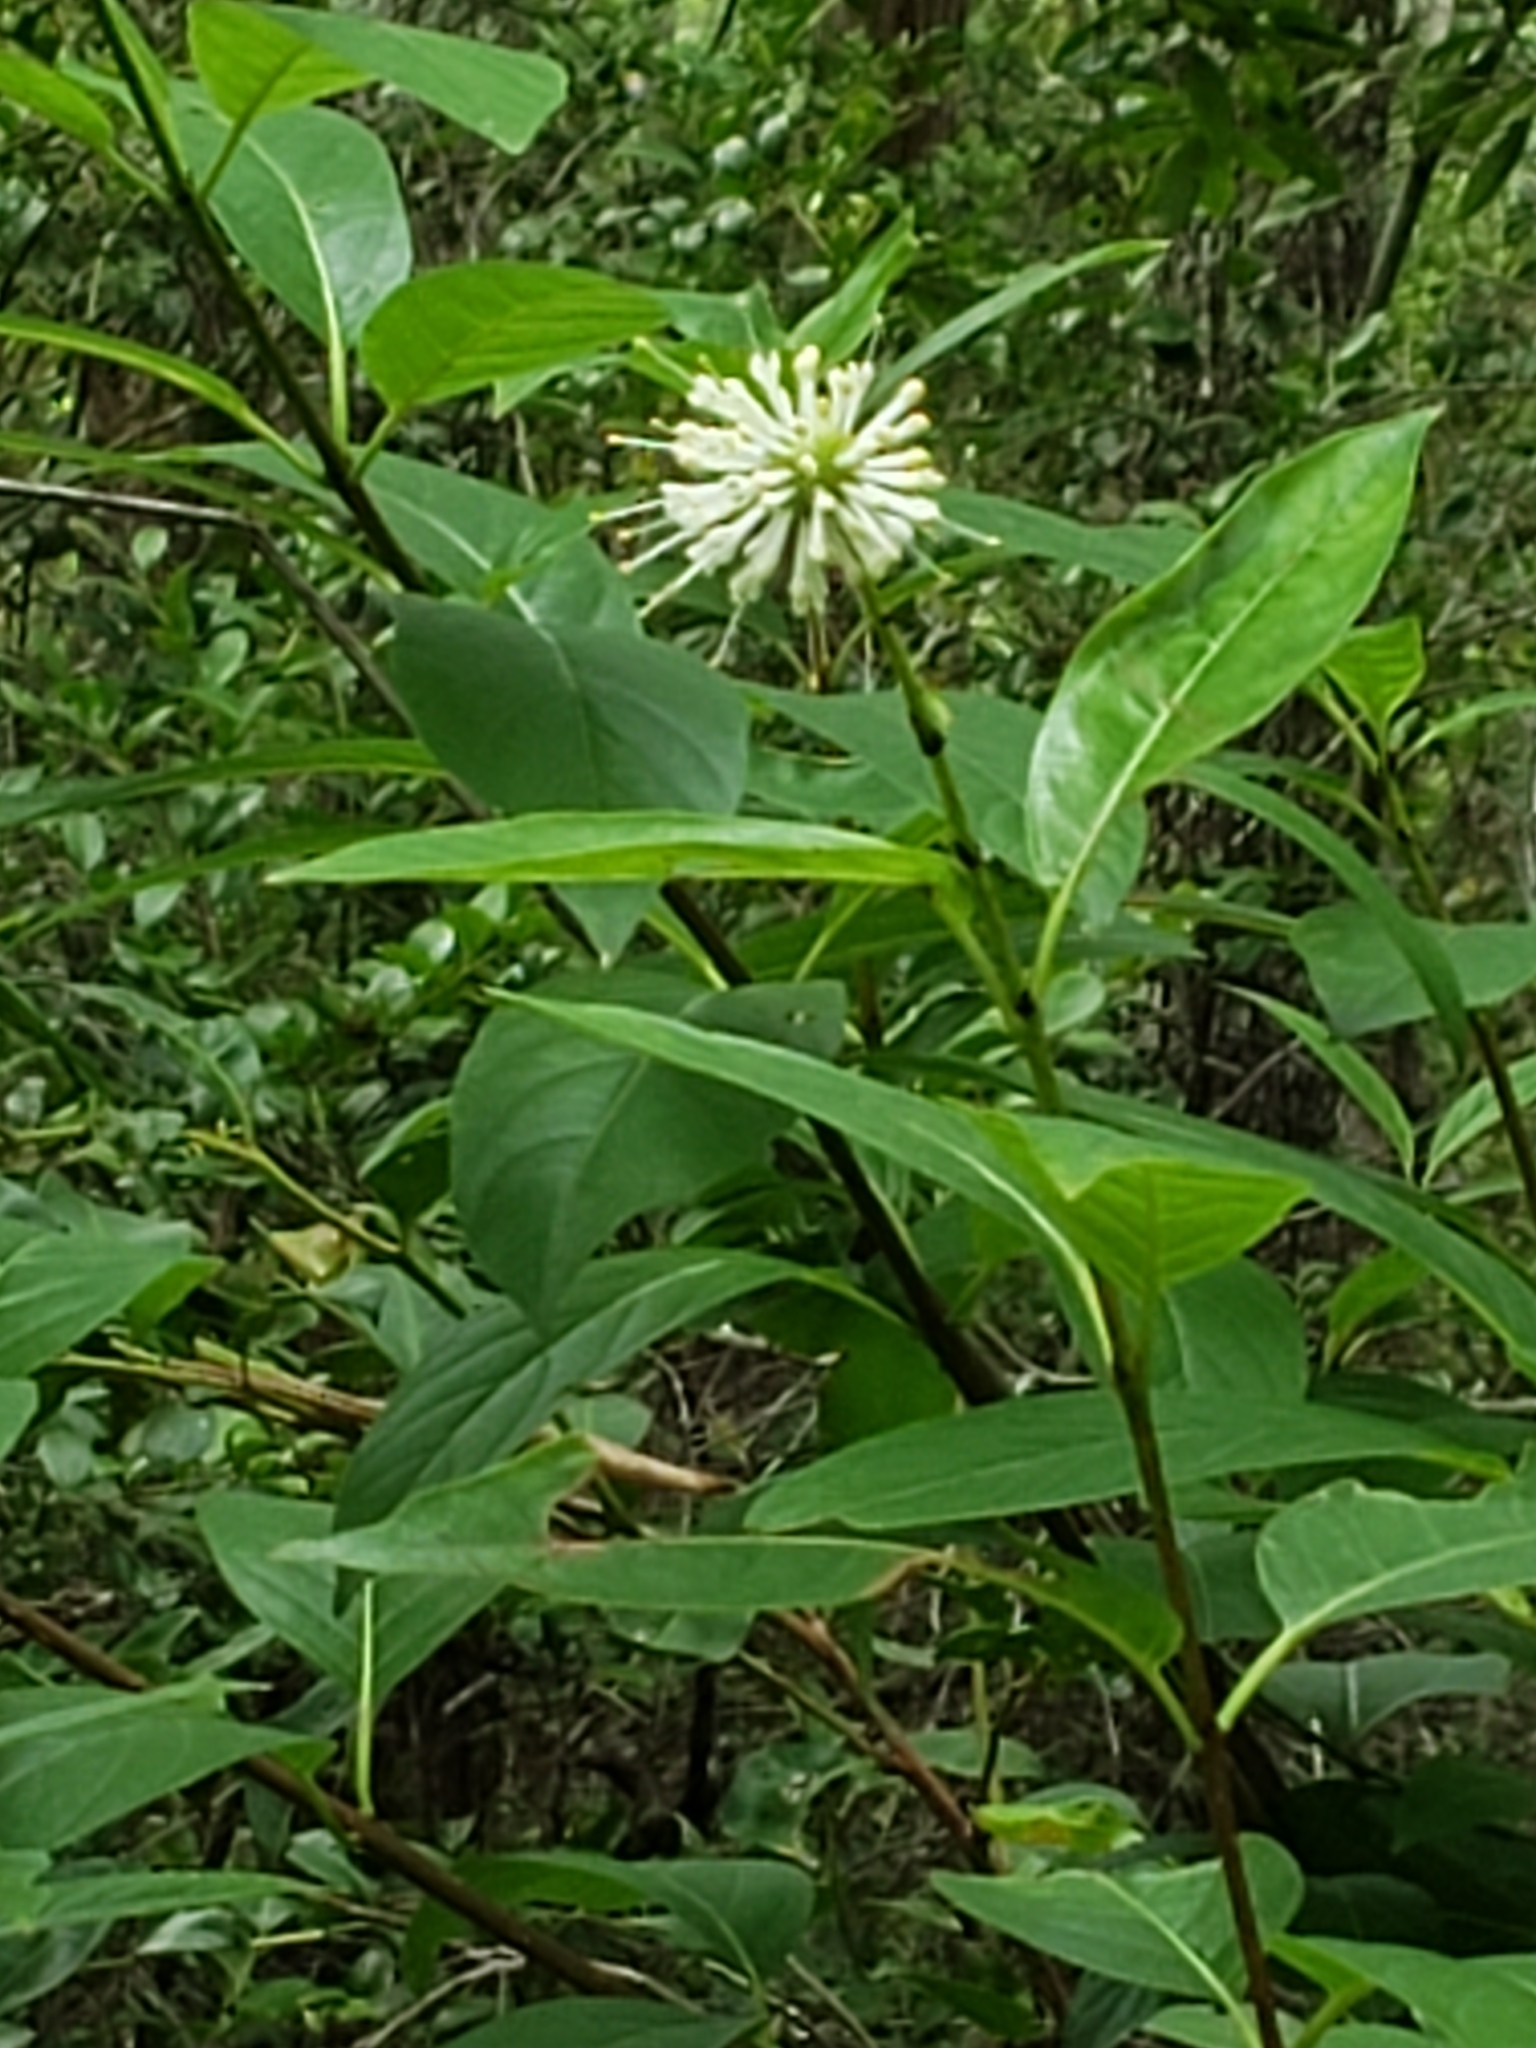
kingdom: Plantae
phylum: Tracheophyta
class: Magnoliopsida
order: Gentianales
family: Rubiaceae
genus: Cephalanthus
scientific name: Cephalanthus occidentalis
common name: Button-willow
